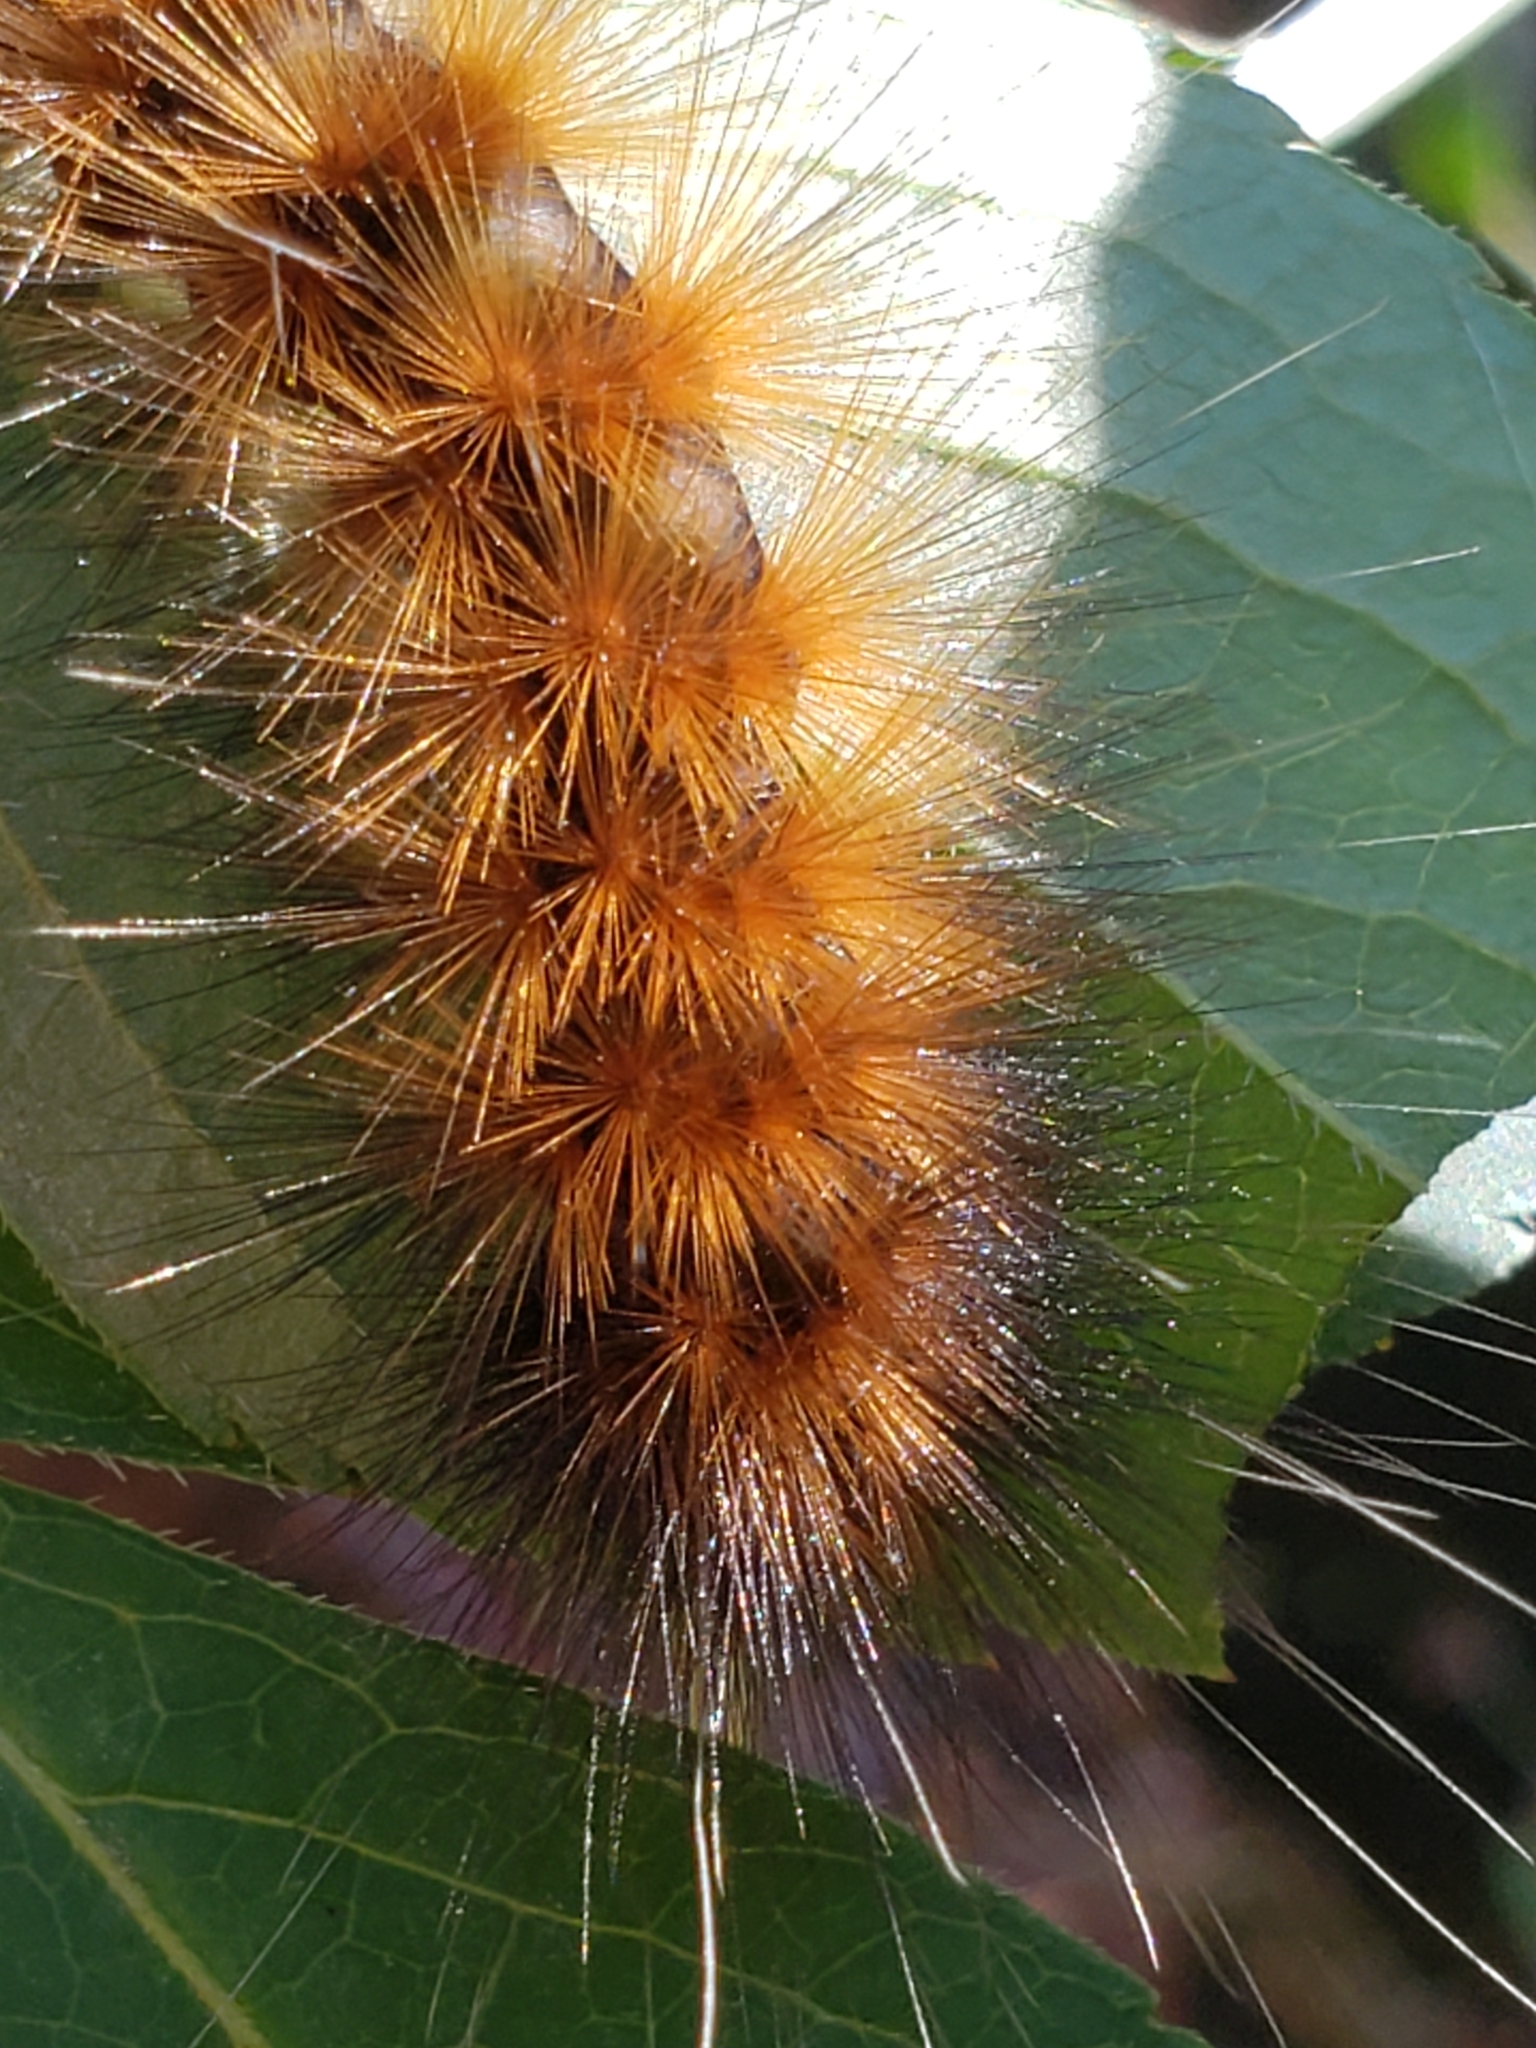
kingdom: Animalia
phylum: Arthropoda
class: Insecta
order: Lepidoptera
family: Erebidae
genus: Spilosoma
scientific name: Spilosoma virginica
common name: Virginia tiger moth
